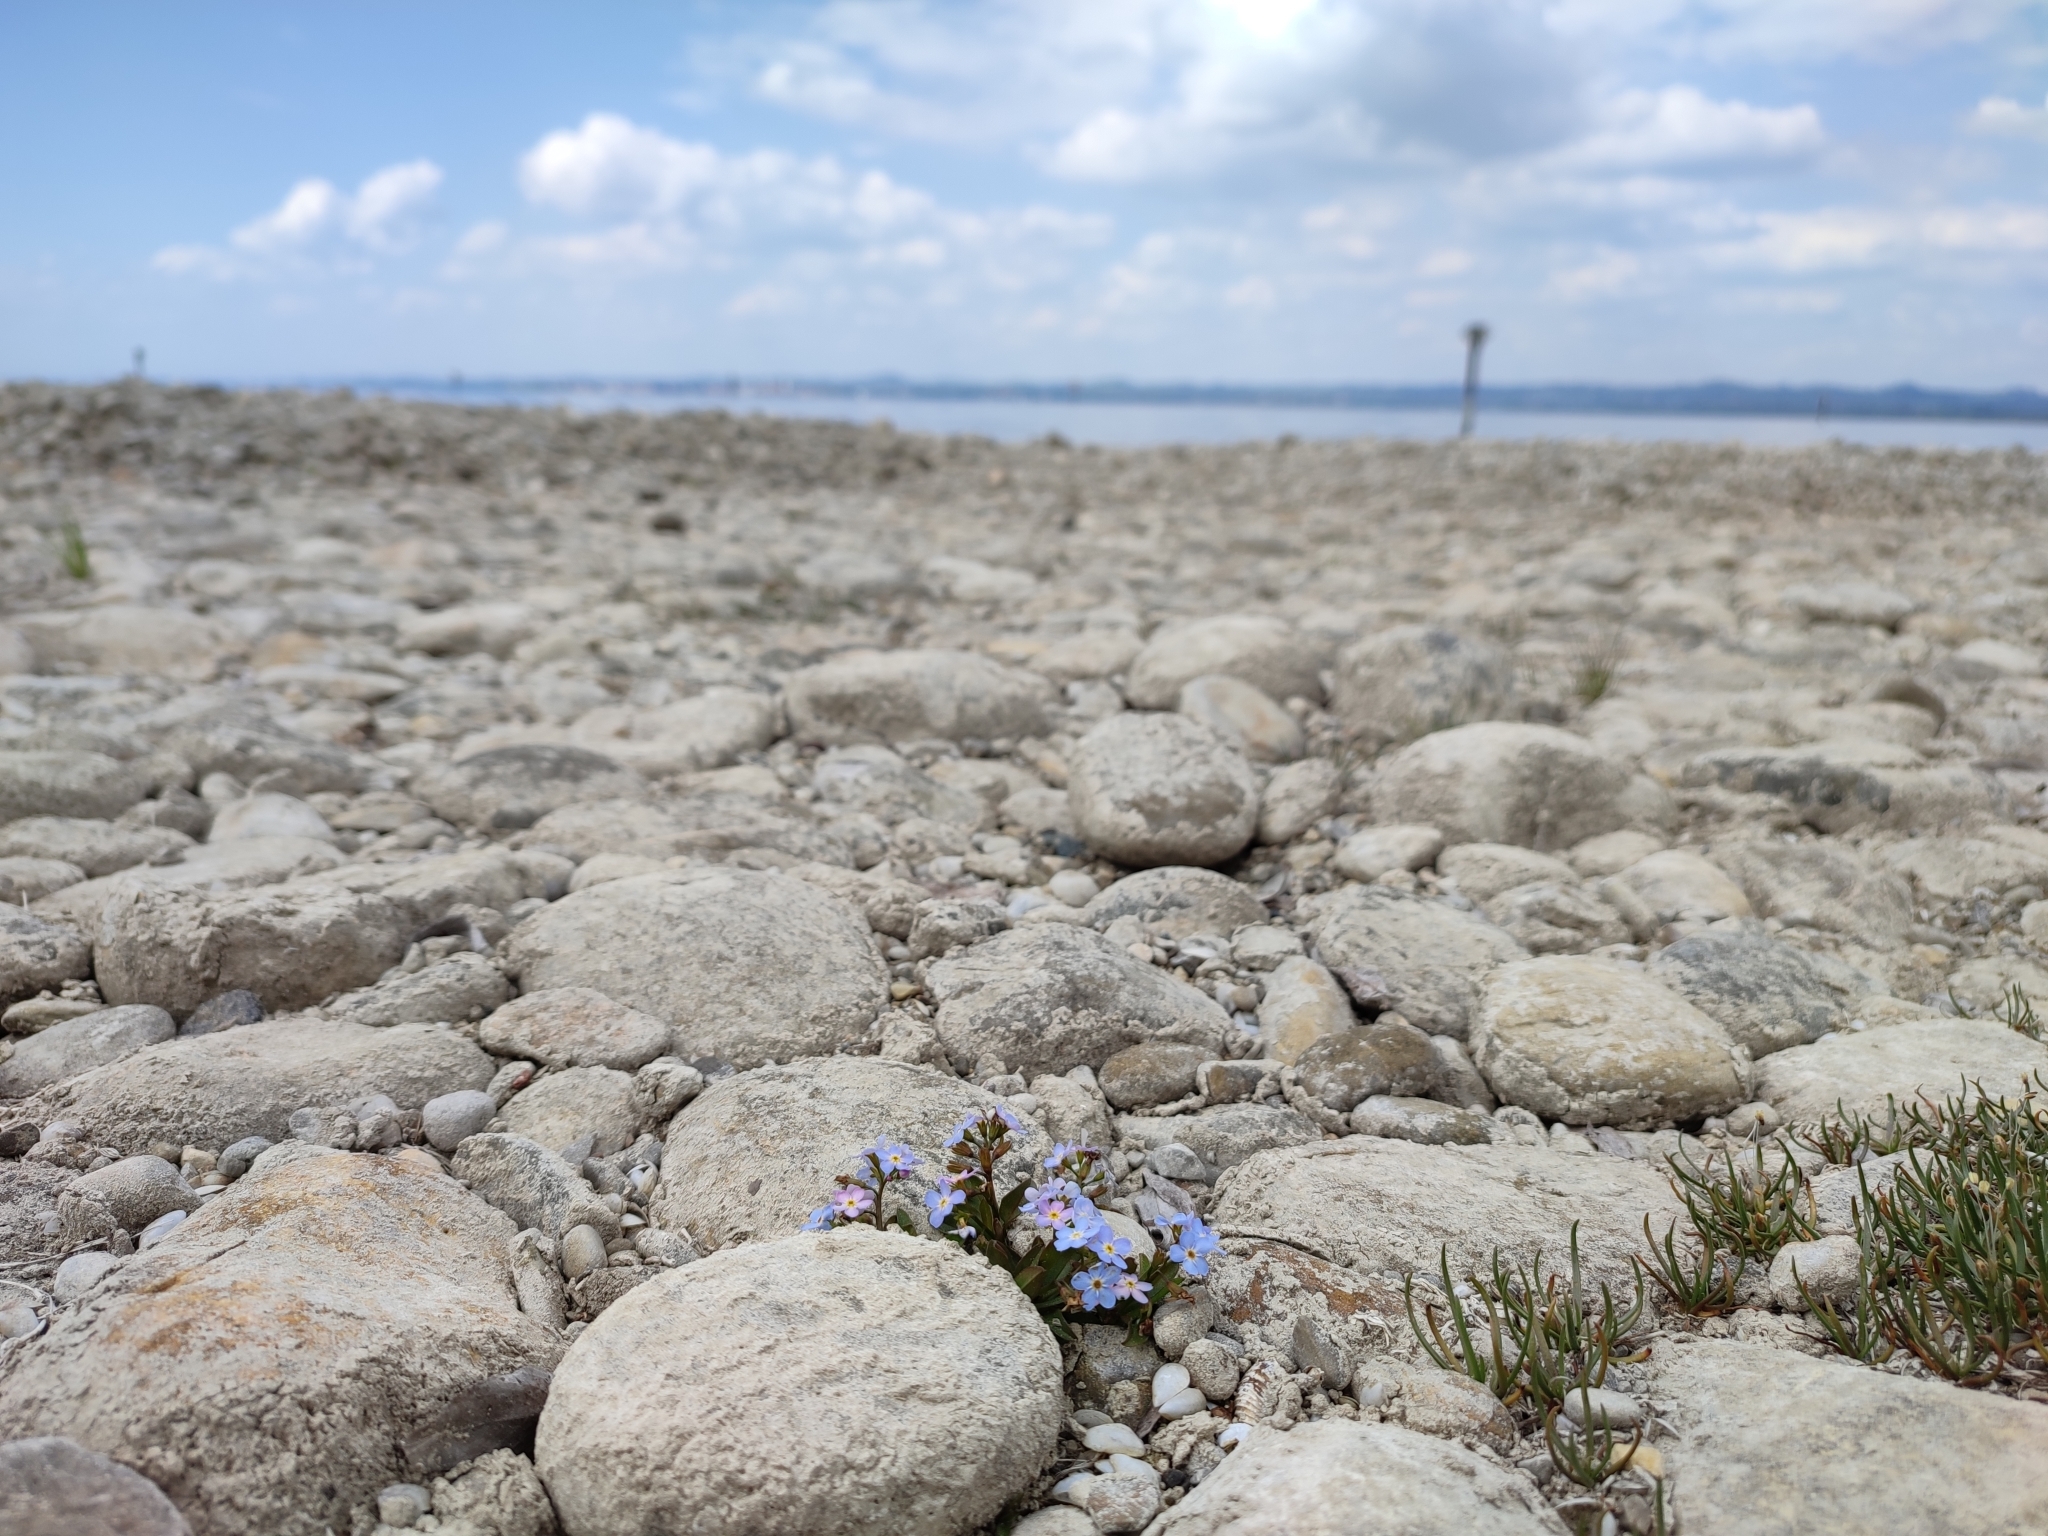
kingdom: Plantae
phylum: Tracheophyta
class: Magnoliopsida
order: Boraginales
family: Boraginaceae
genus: Myosotis
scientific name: Myosotis rehsteineri
